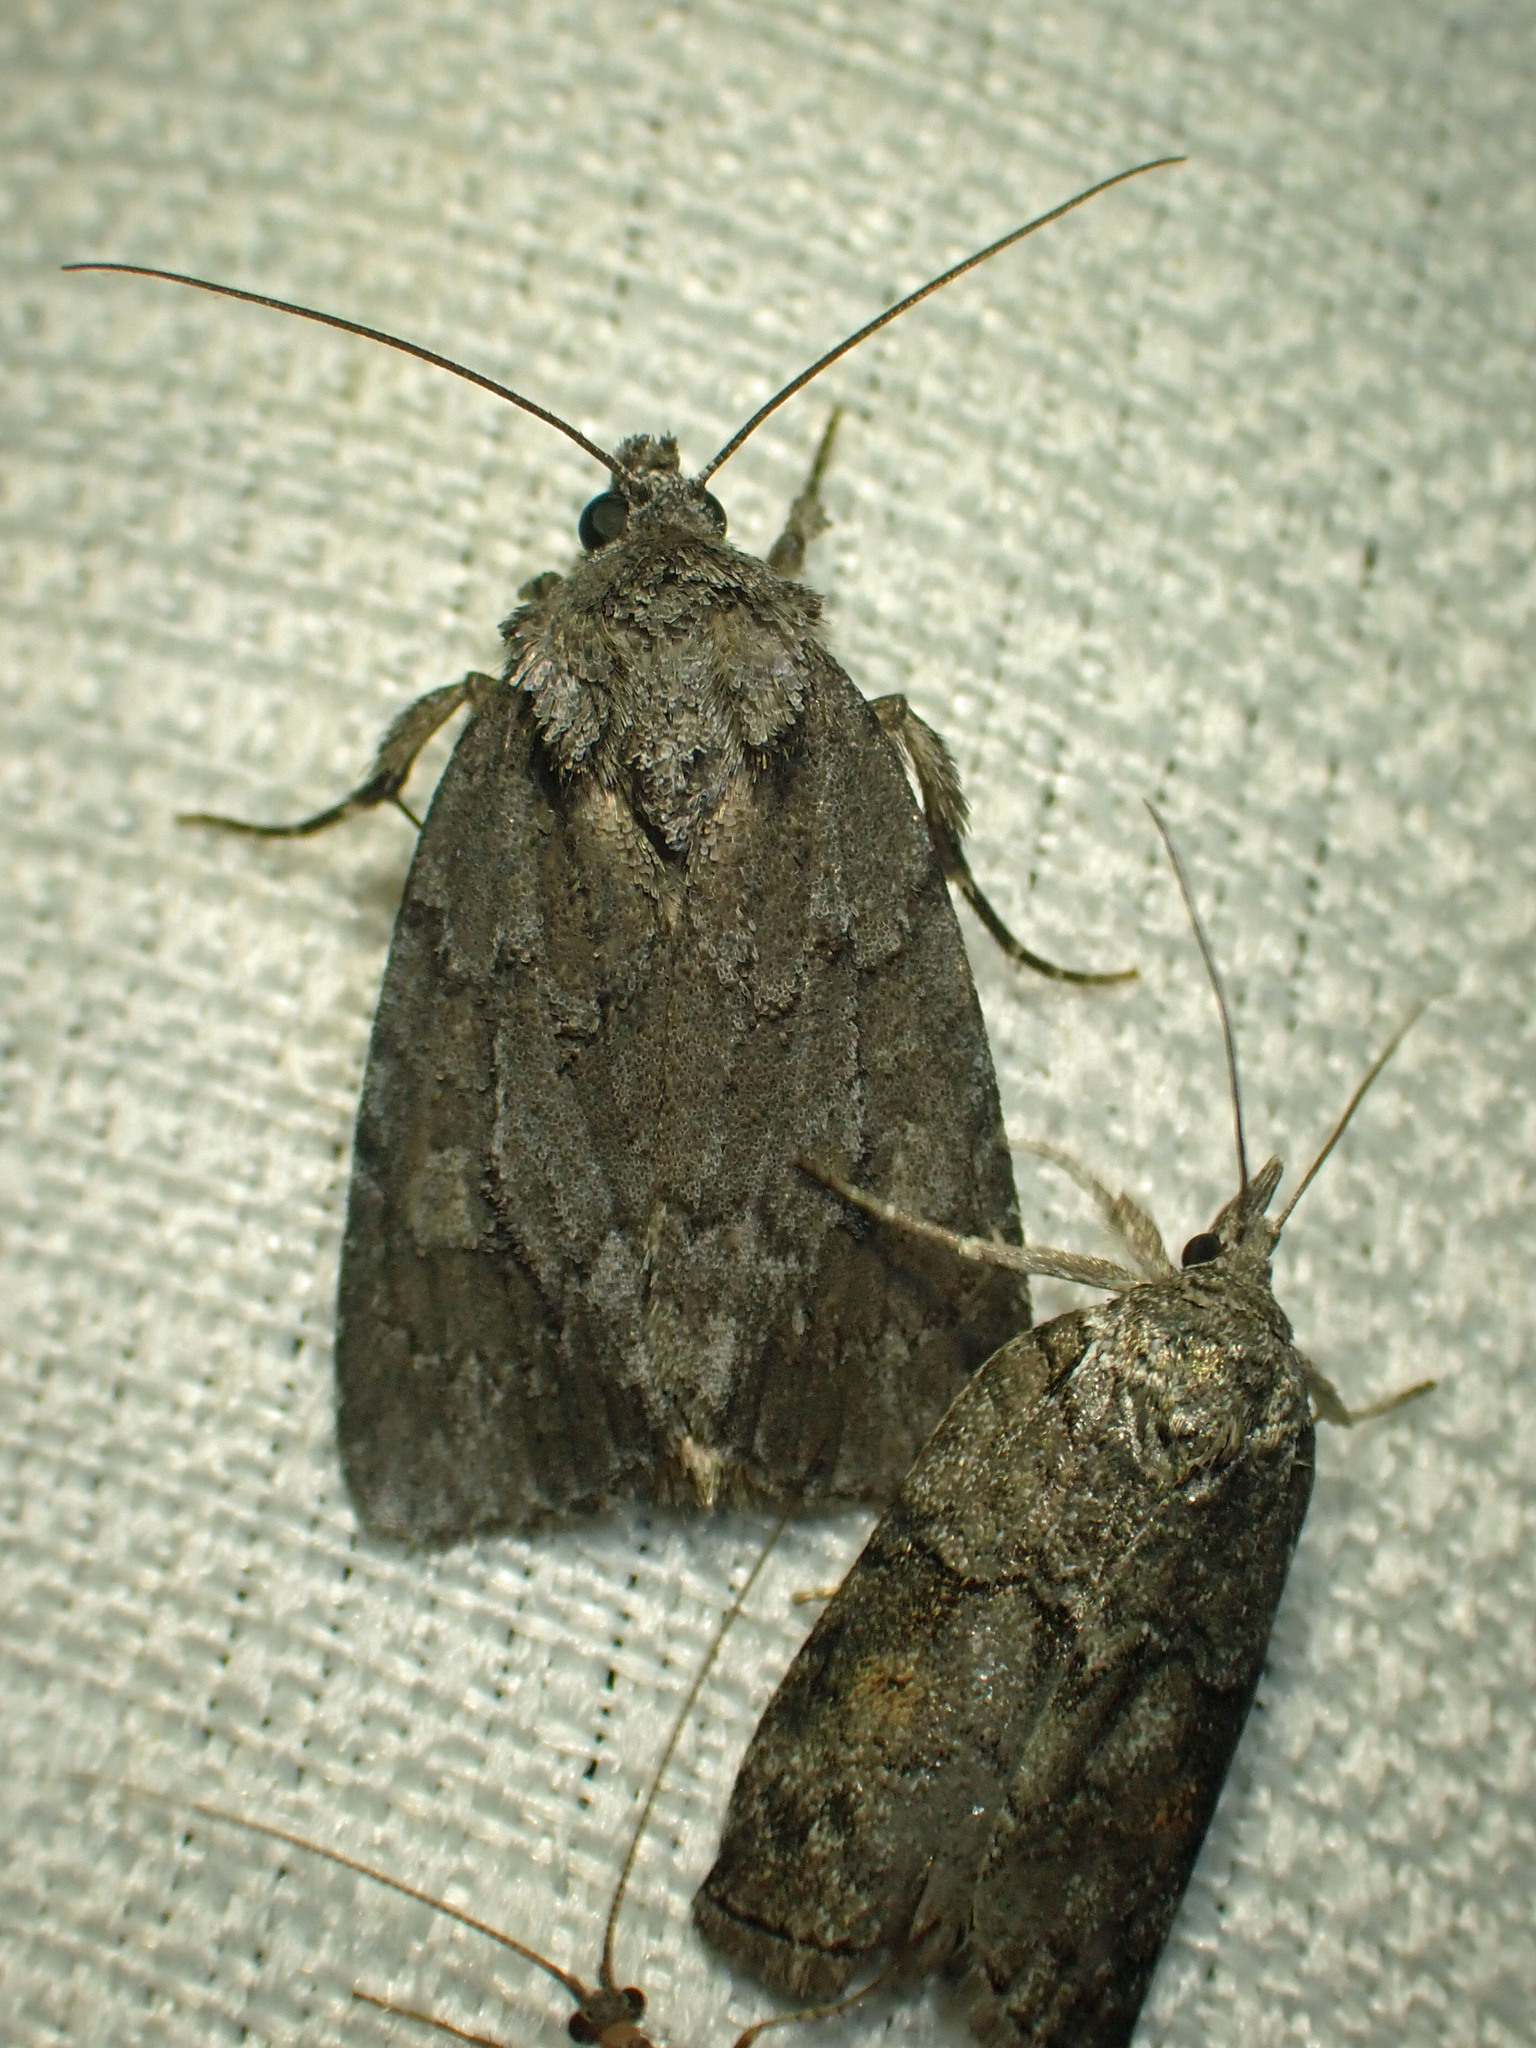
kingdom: Animalia
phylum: Arthropoda
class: Insecta
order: Lepidoptera
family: Noctuidae
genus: Sympistis
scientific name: Sympistis dentata
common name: Blueberry sallow
